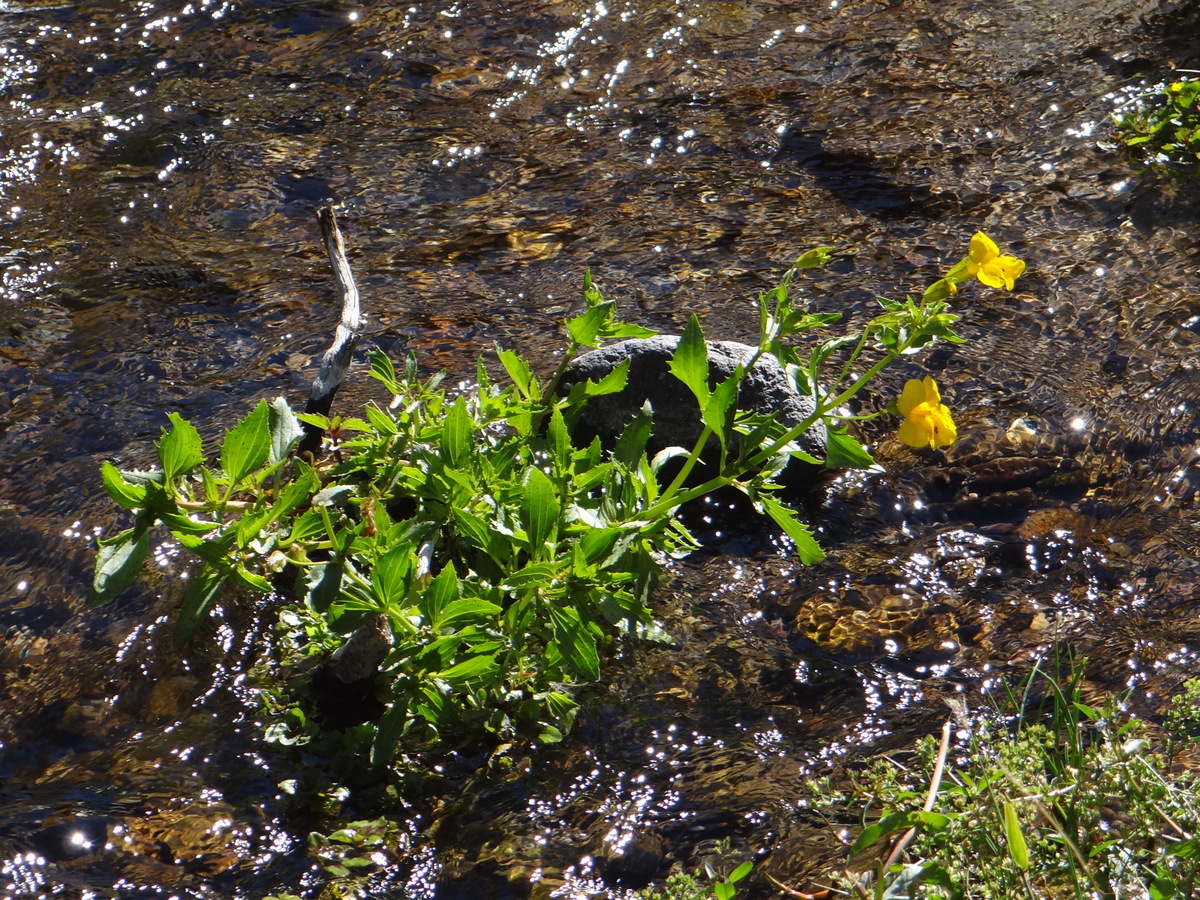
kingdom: Plantae
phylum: Tracheophyta
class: Magnoliopsida
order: Lamiales
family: Phrymaceae
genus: Erythranthe
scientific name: Erythranthe lutea
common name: Yellow monkey-flower
